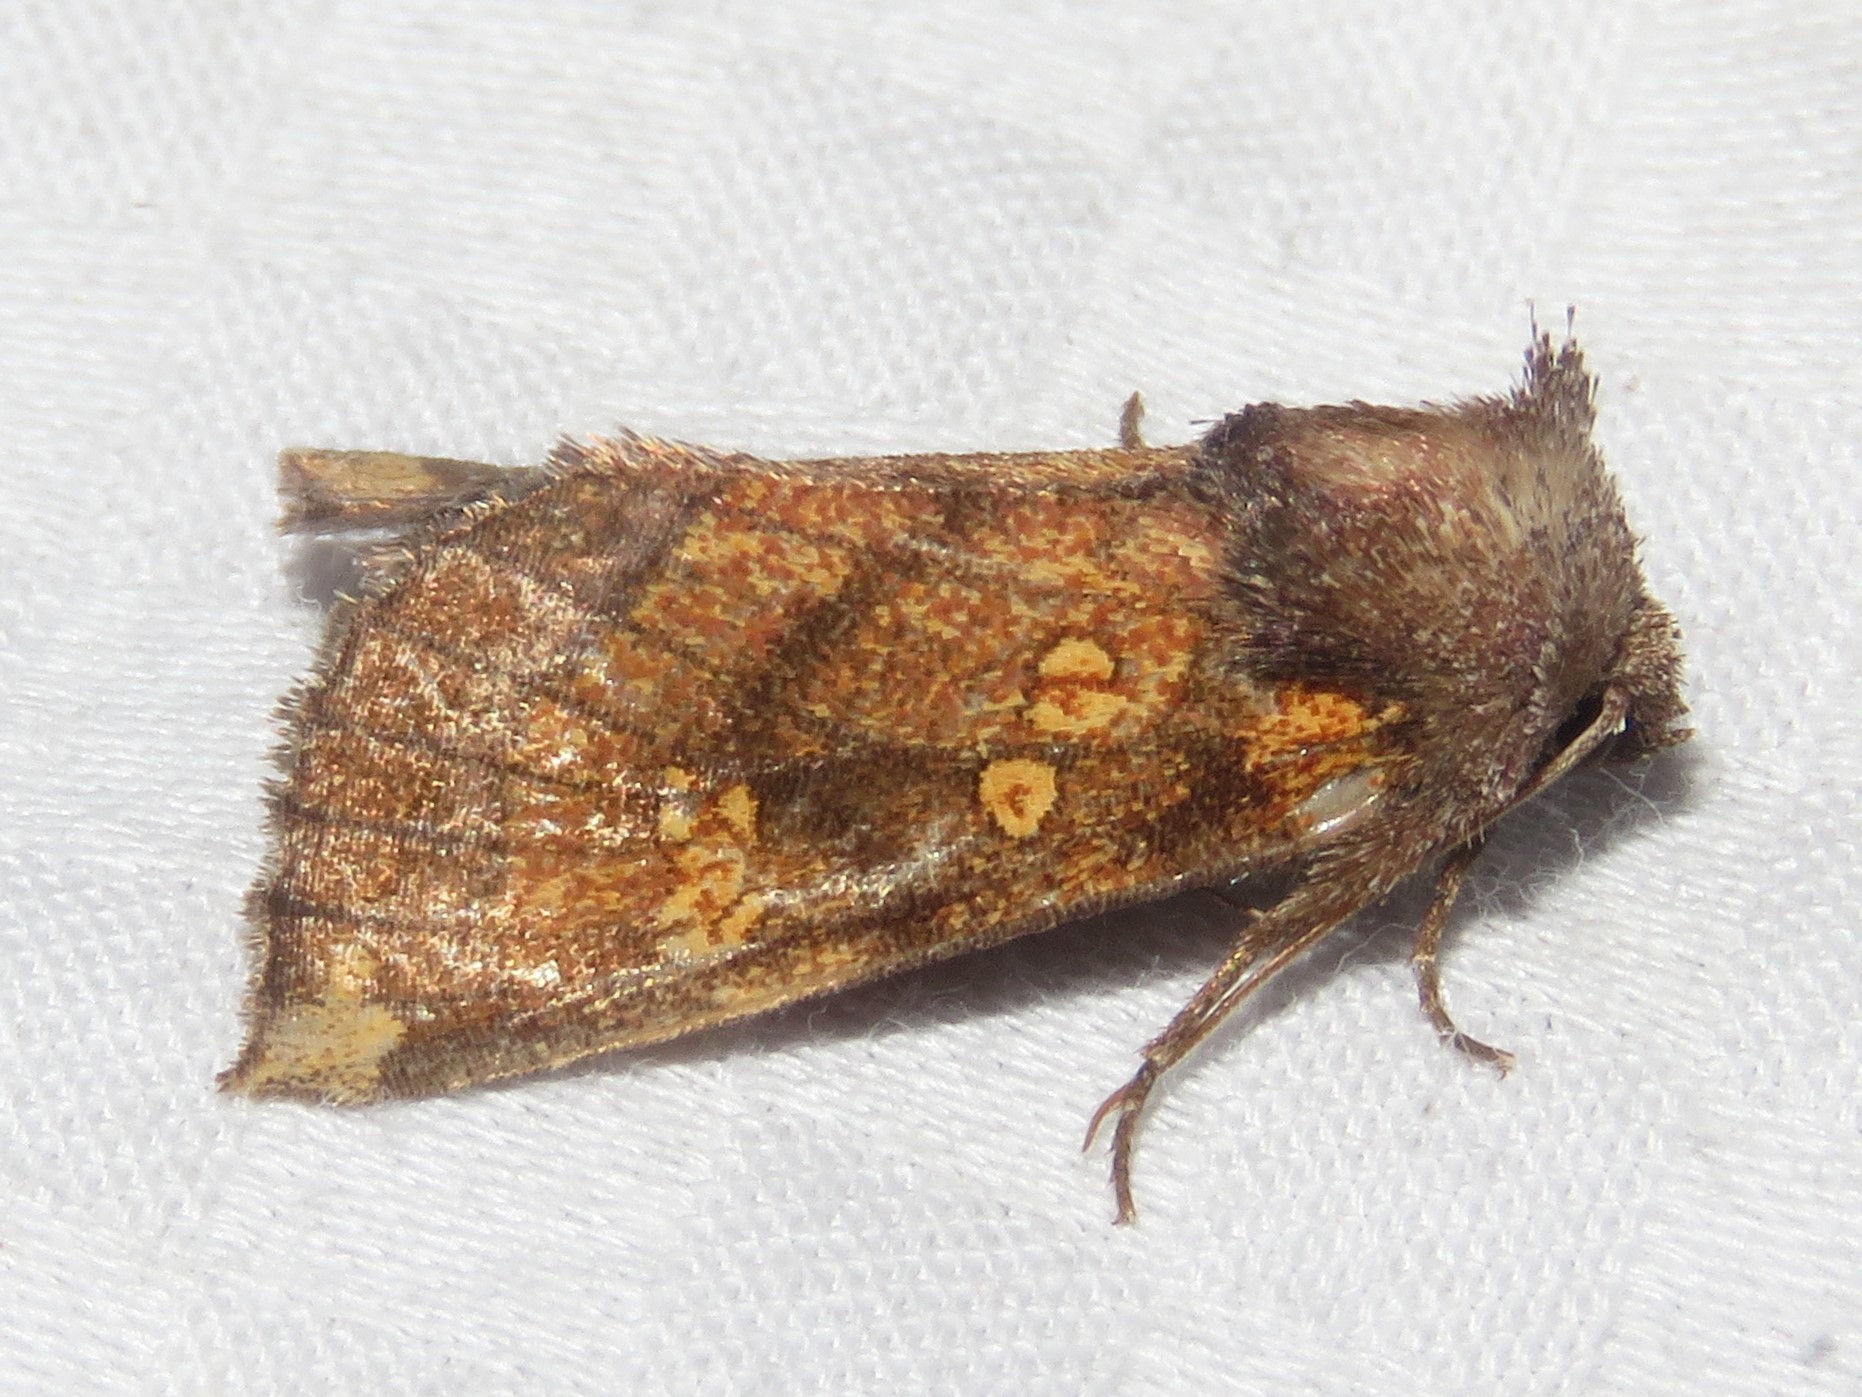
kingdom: Animalia
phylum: Arthropoda
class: Insecta
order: Lepidoptera
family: Noctuidae
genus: Papaipema
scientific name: Papaipema impecuniosa
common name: Aster borer moth
